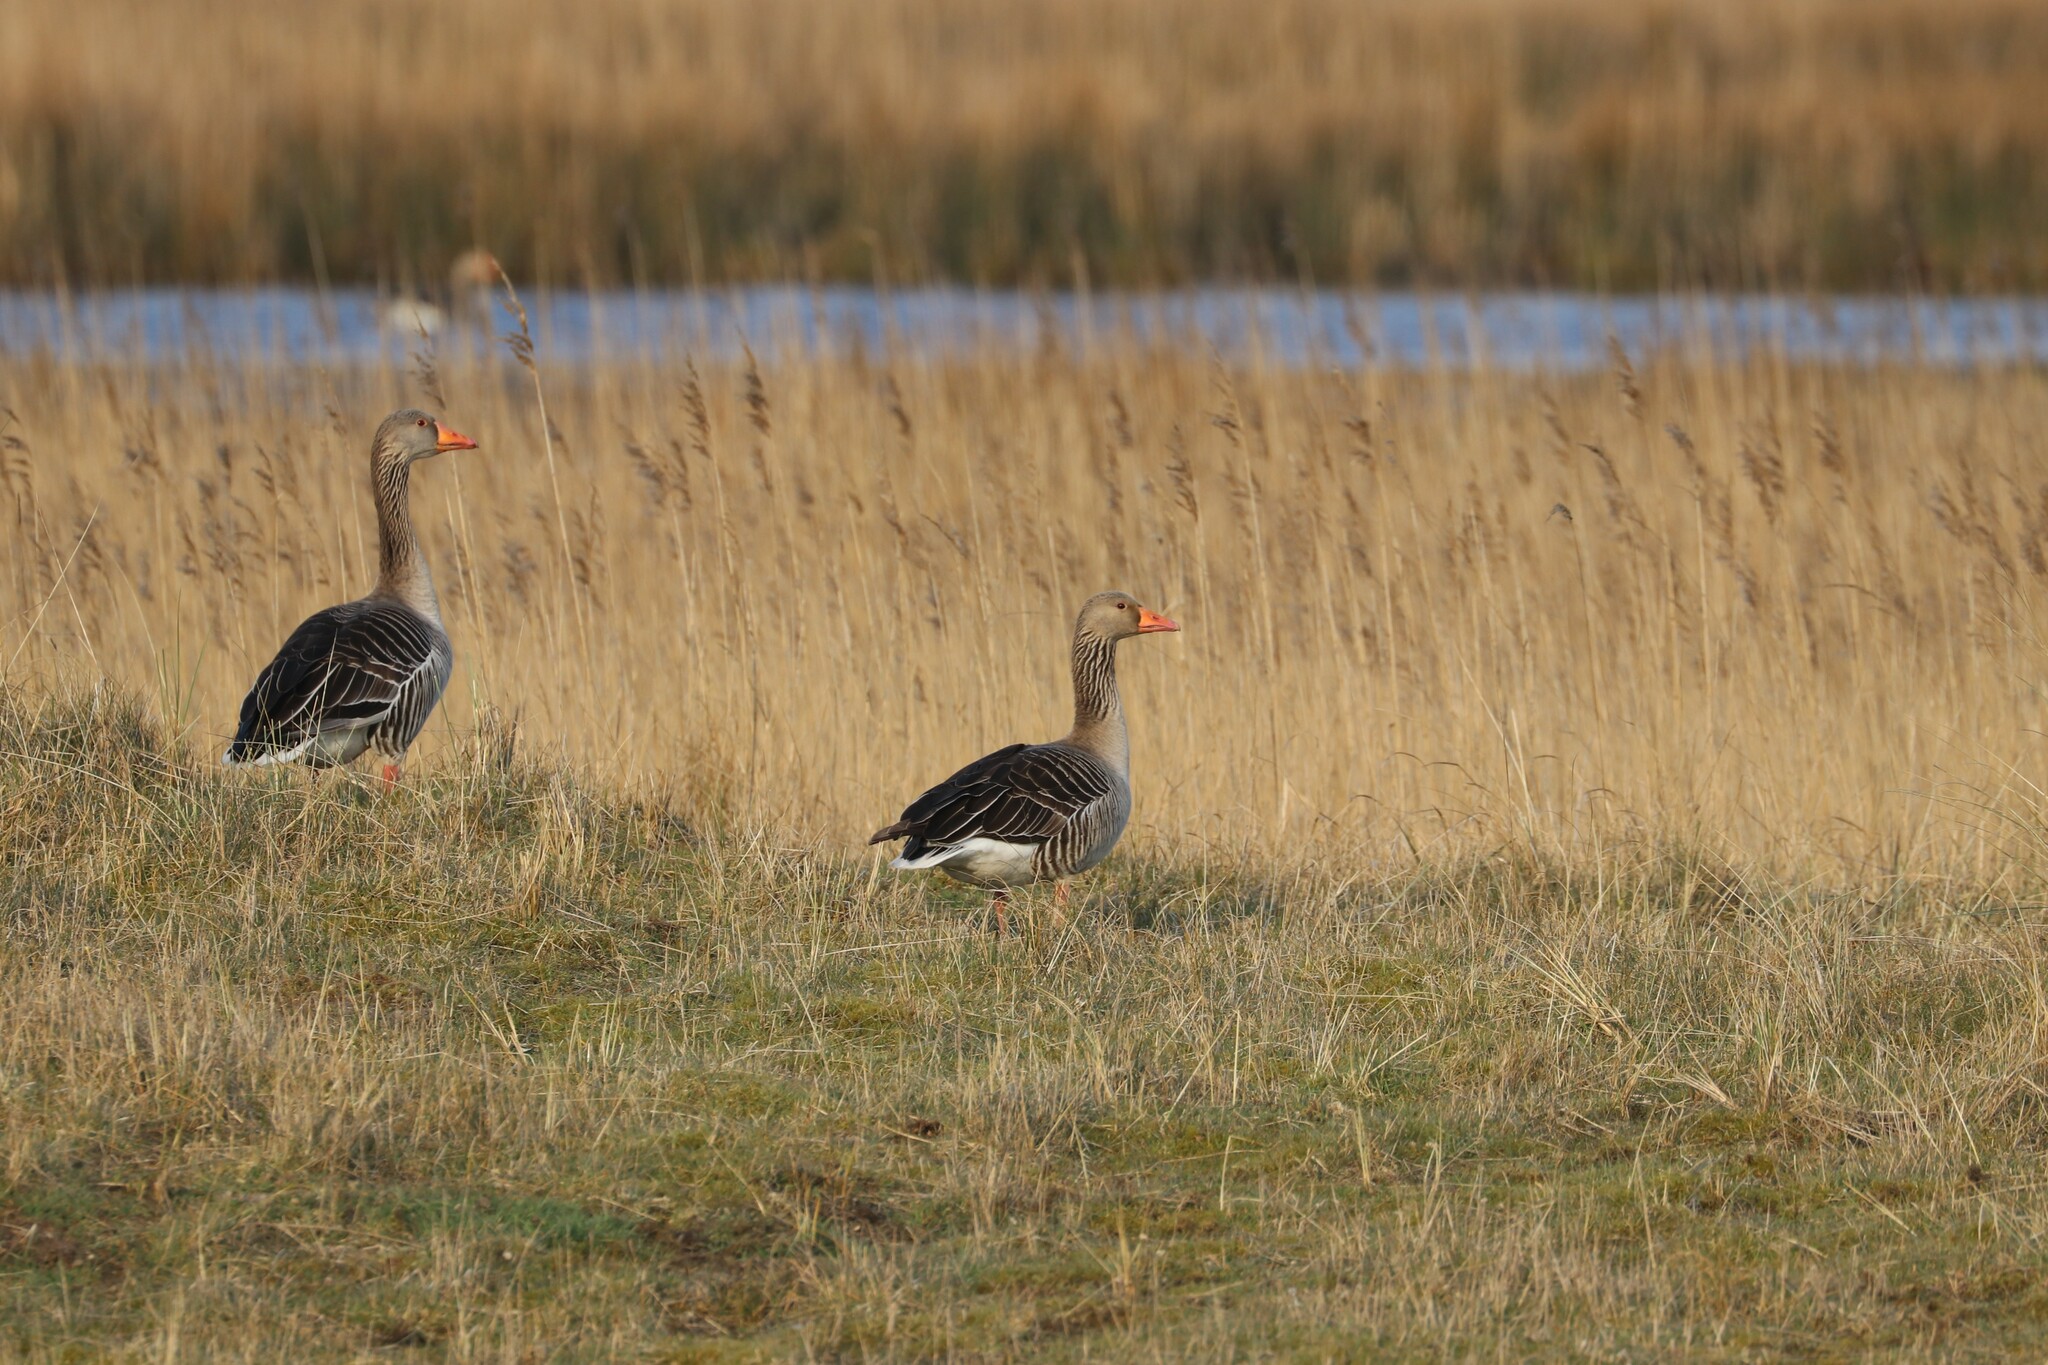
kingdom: Animalia
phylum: Chordata
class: Aves
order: Anseriformes
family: Anatidae
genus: Anser
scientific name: Anser anser
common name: Greylag goose
